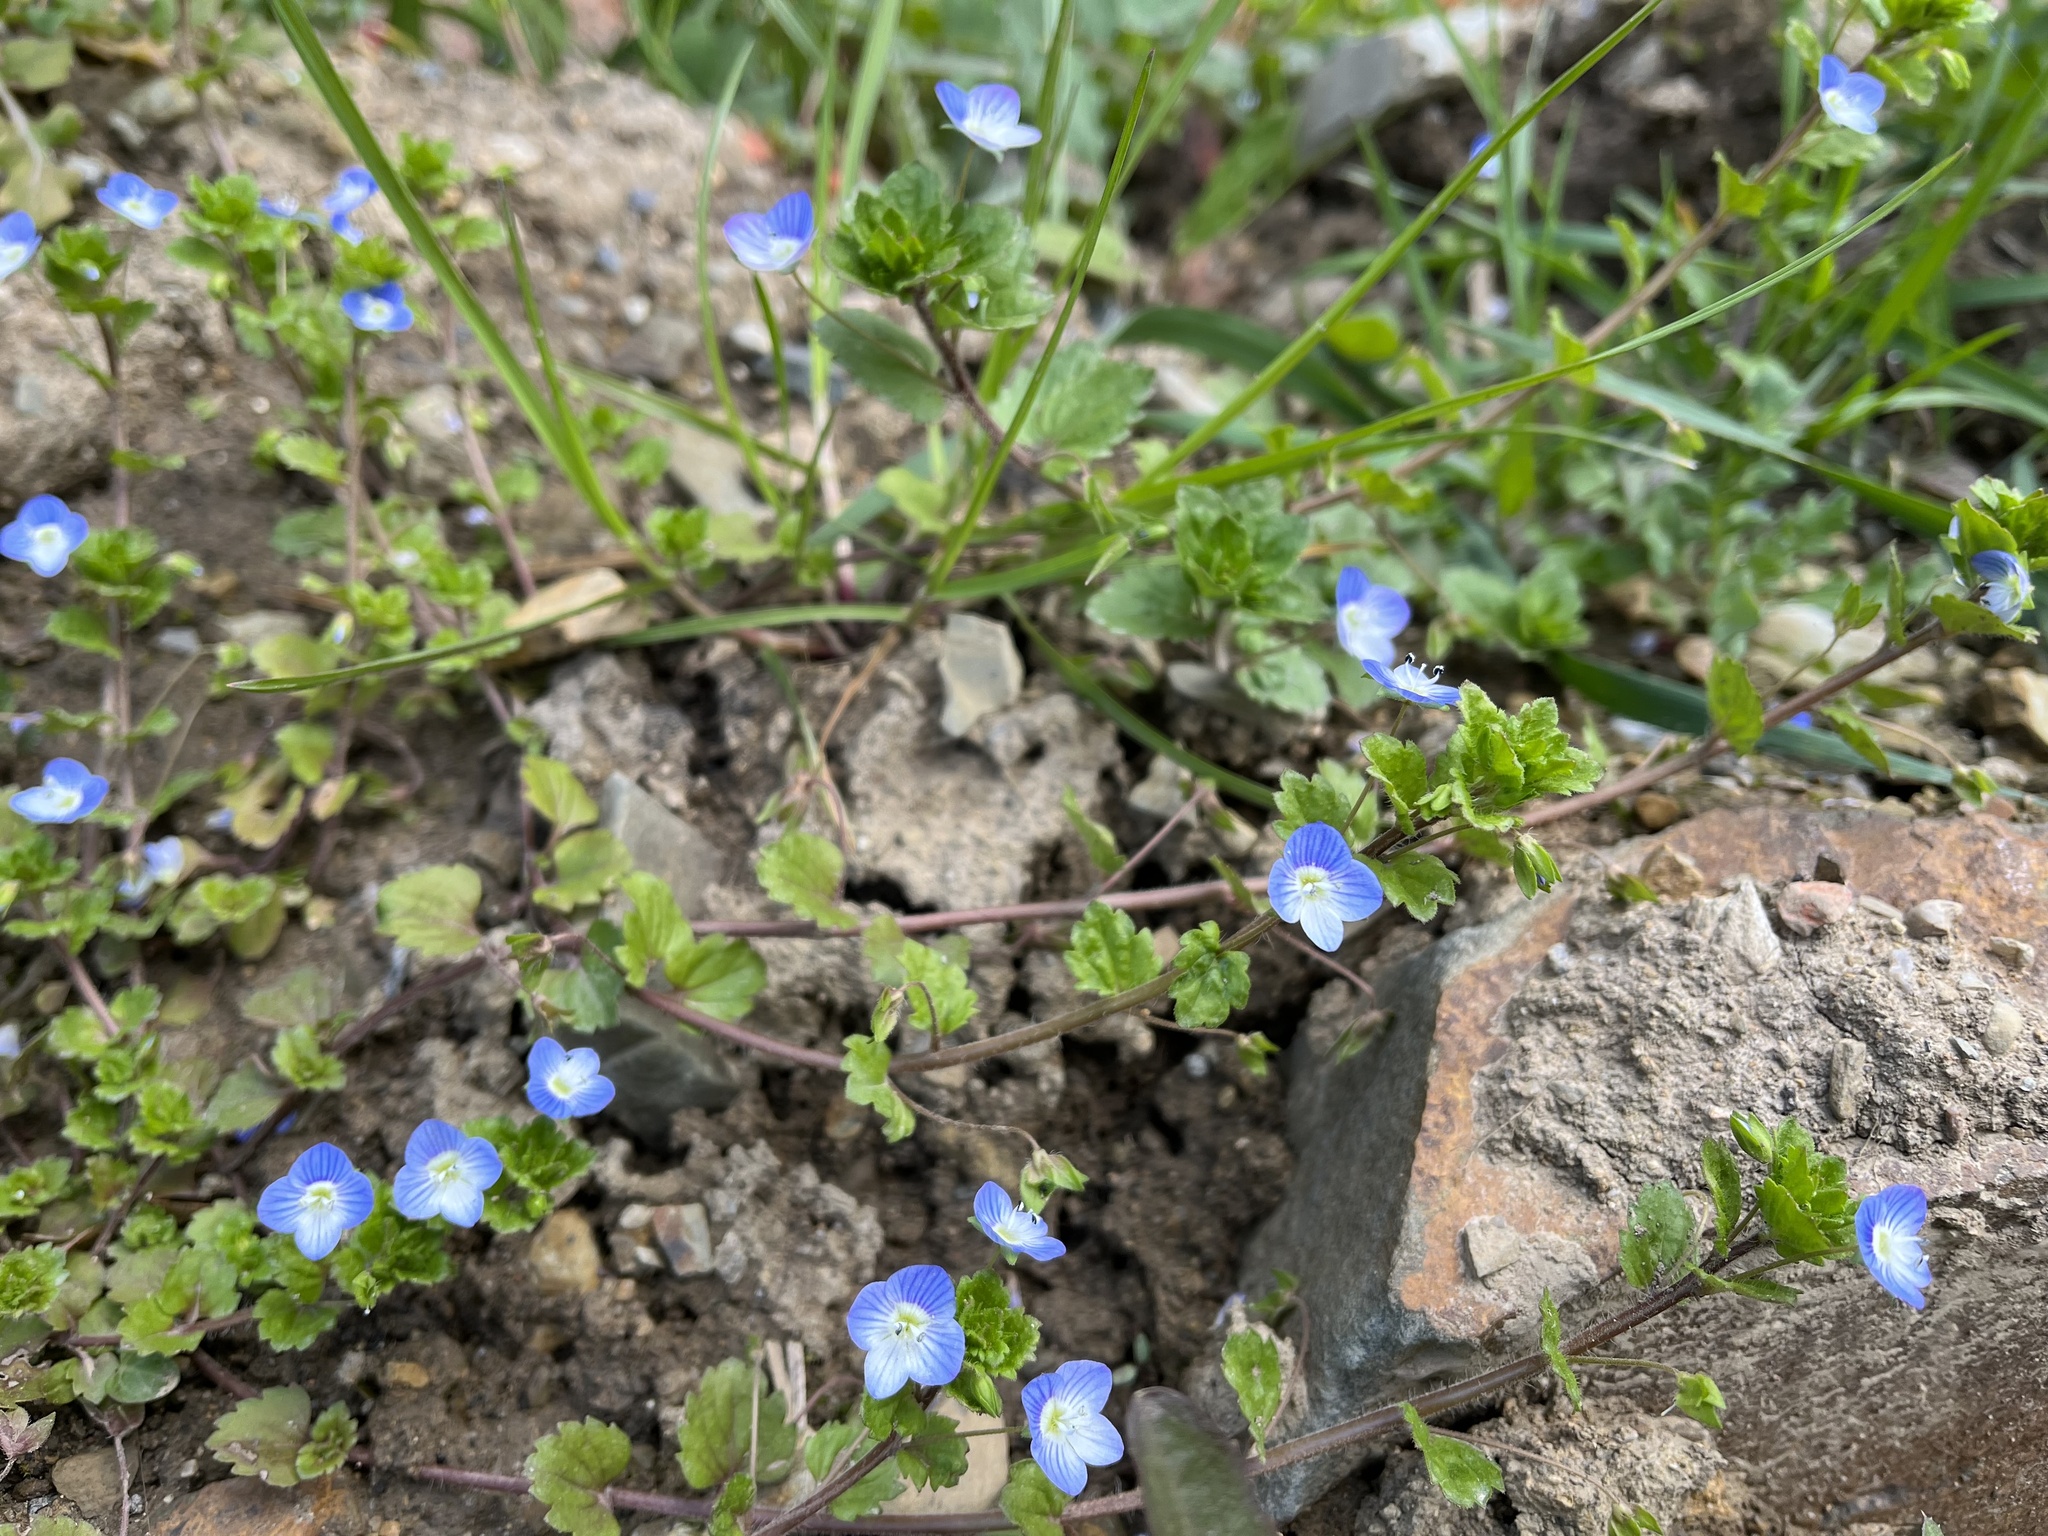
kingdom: Plantae
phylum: Tracheophyta
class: Magnoliopsida
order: Lamiales
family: Plantaginaceae
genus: Veronica
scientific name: Veronica persica
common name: Common field-speedwell
